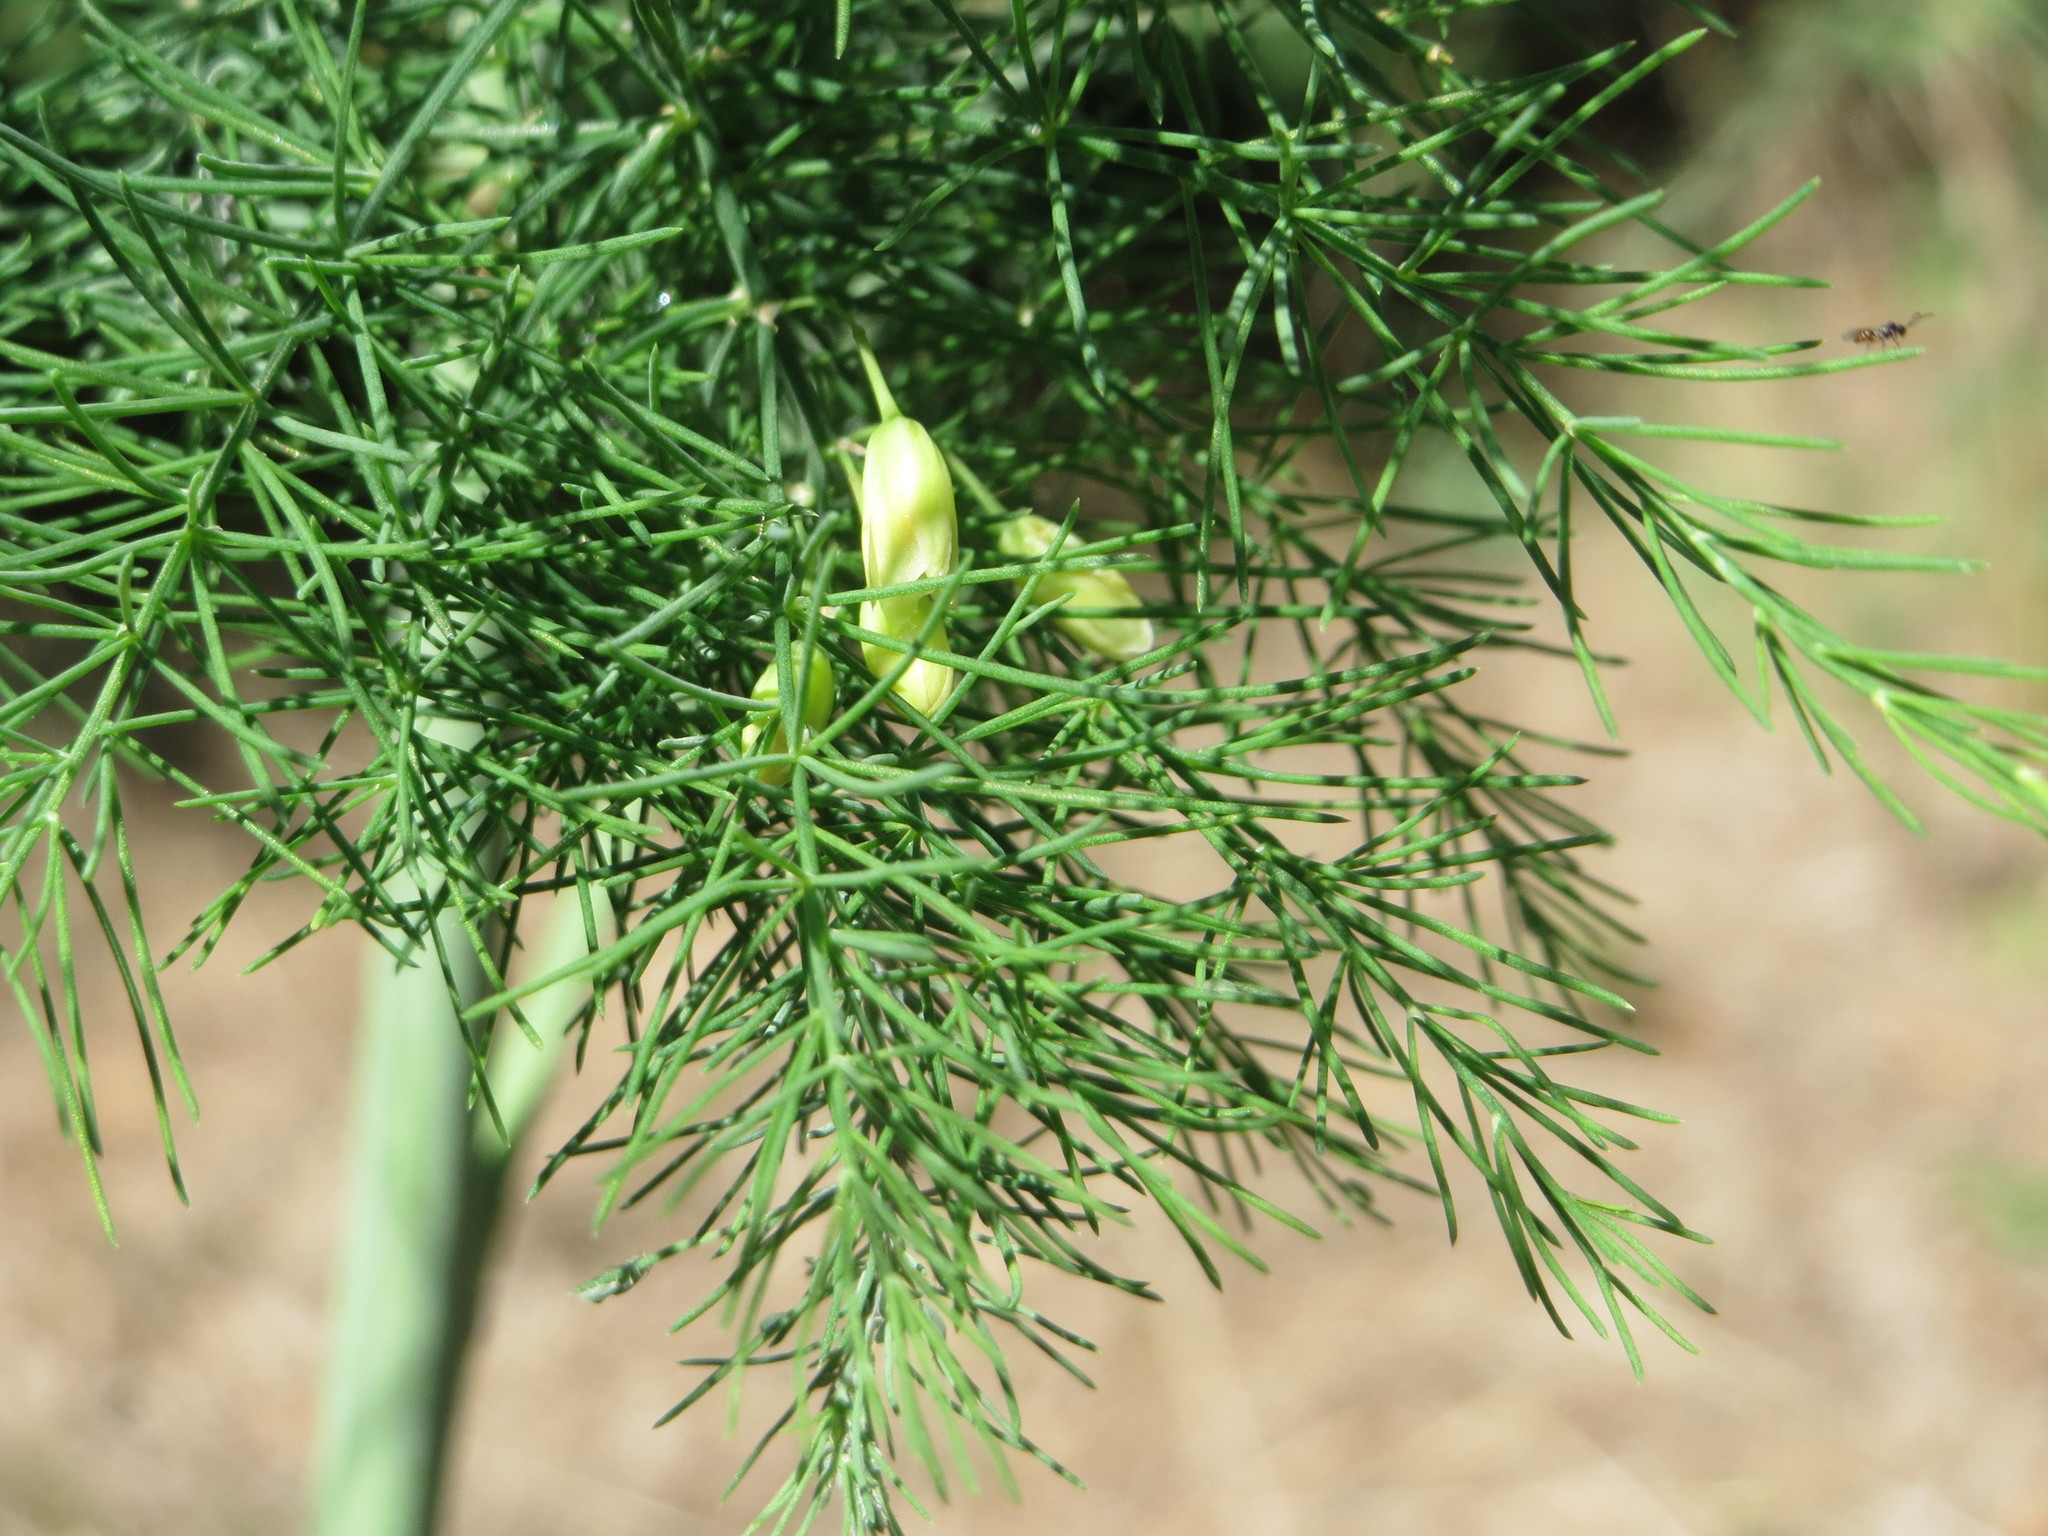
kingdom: Plantae
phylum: Tracheophyta
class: Liliopsida
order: Asparagales
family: Asparagaceae
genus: Asparagus
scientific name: Asparagus officinalis
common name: Garden asparagus
